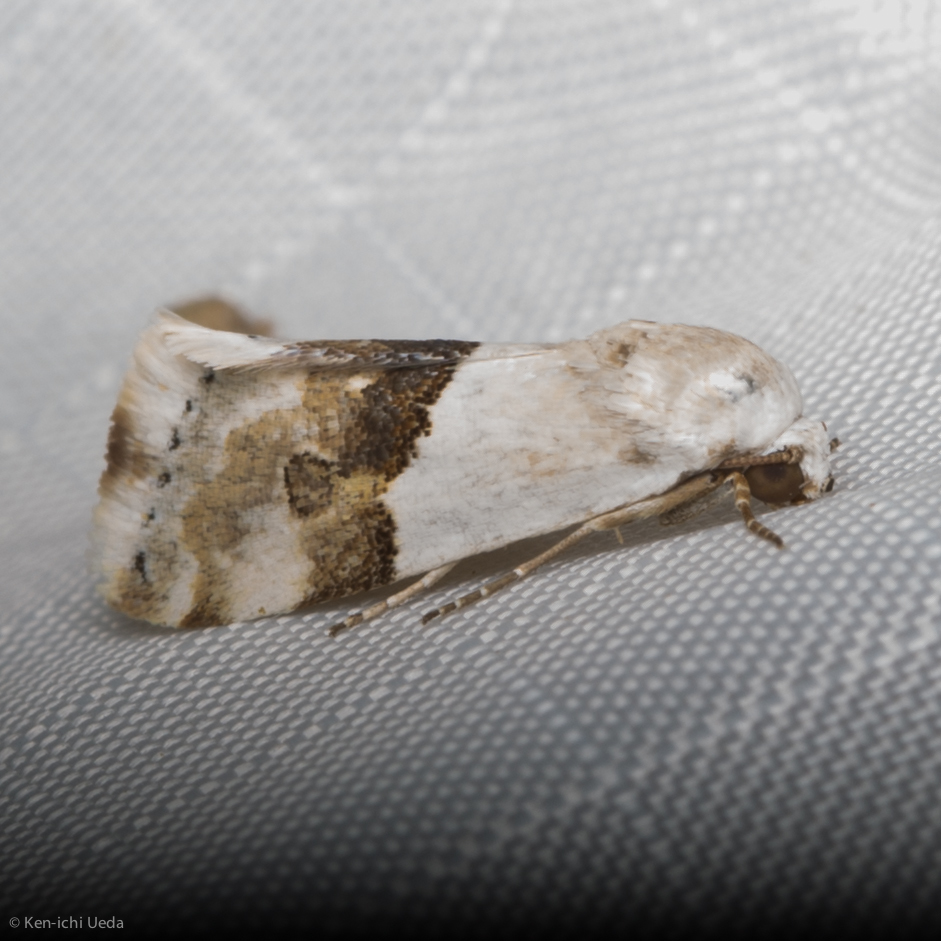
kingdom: Animalia
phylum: Arthropoda
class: Insecta
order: Lepidoptera
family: Noctuidae
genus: Ponometia
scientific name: Ponometia elegantula
